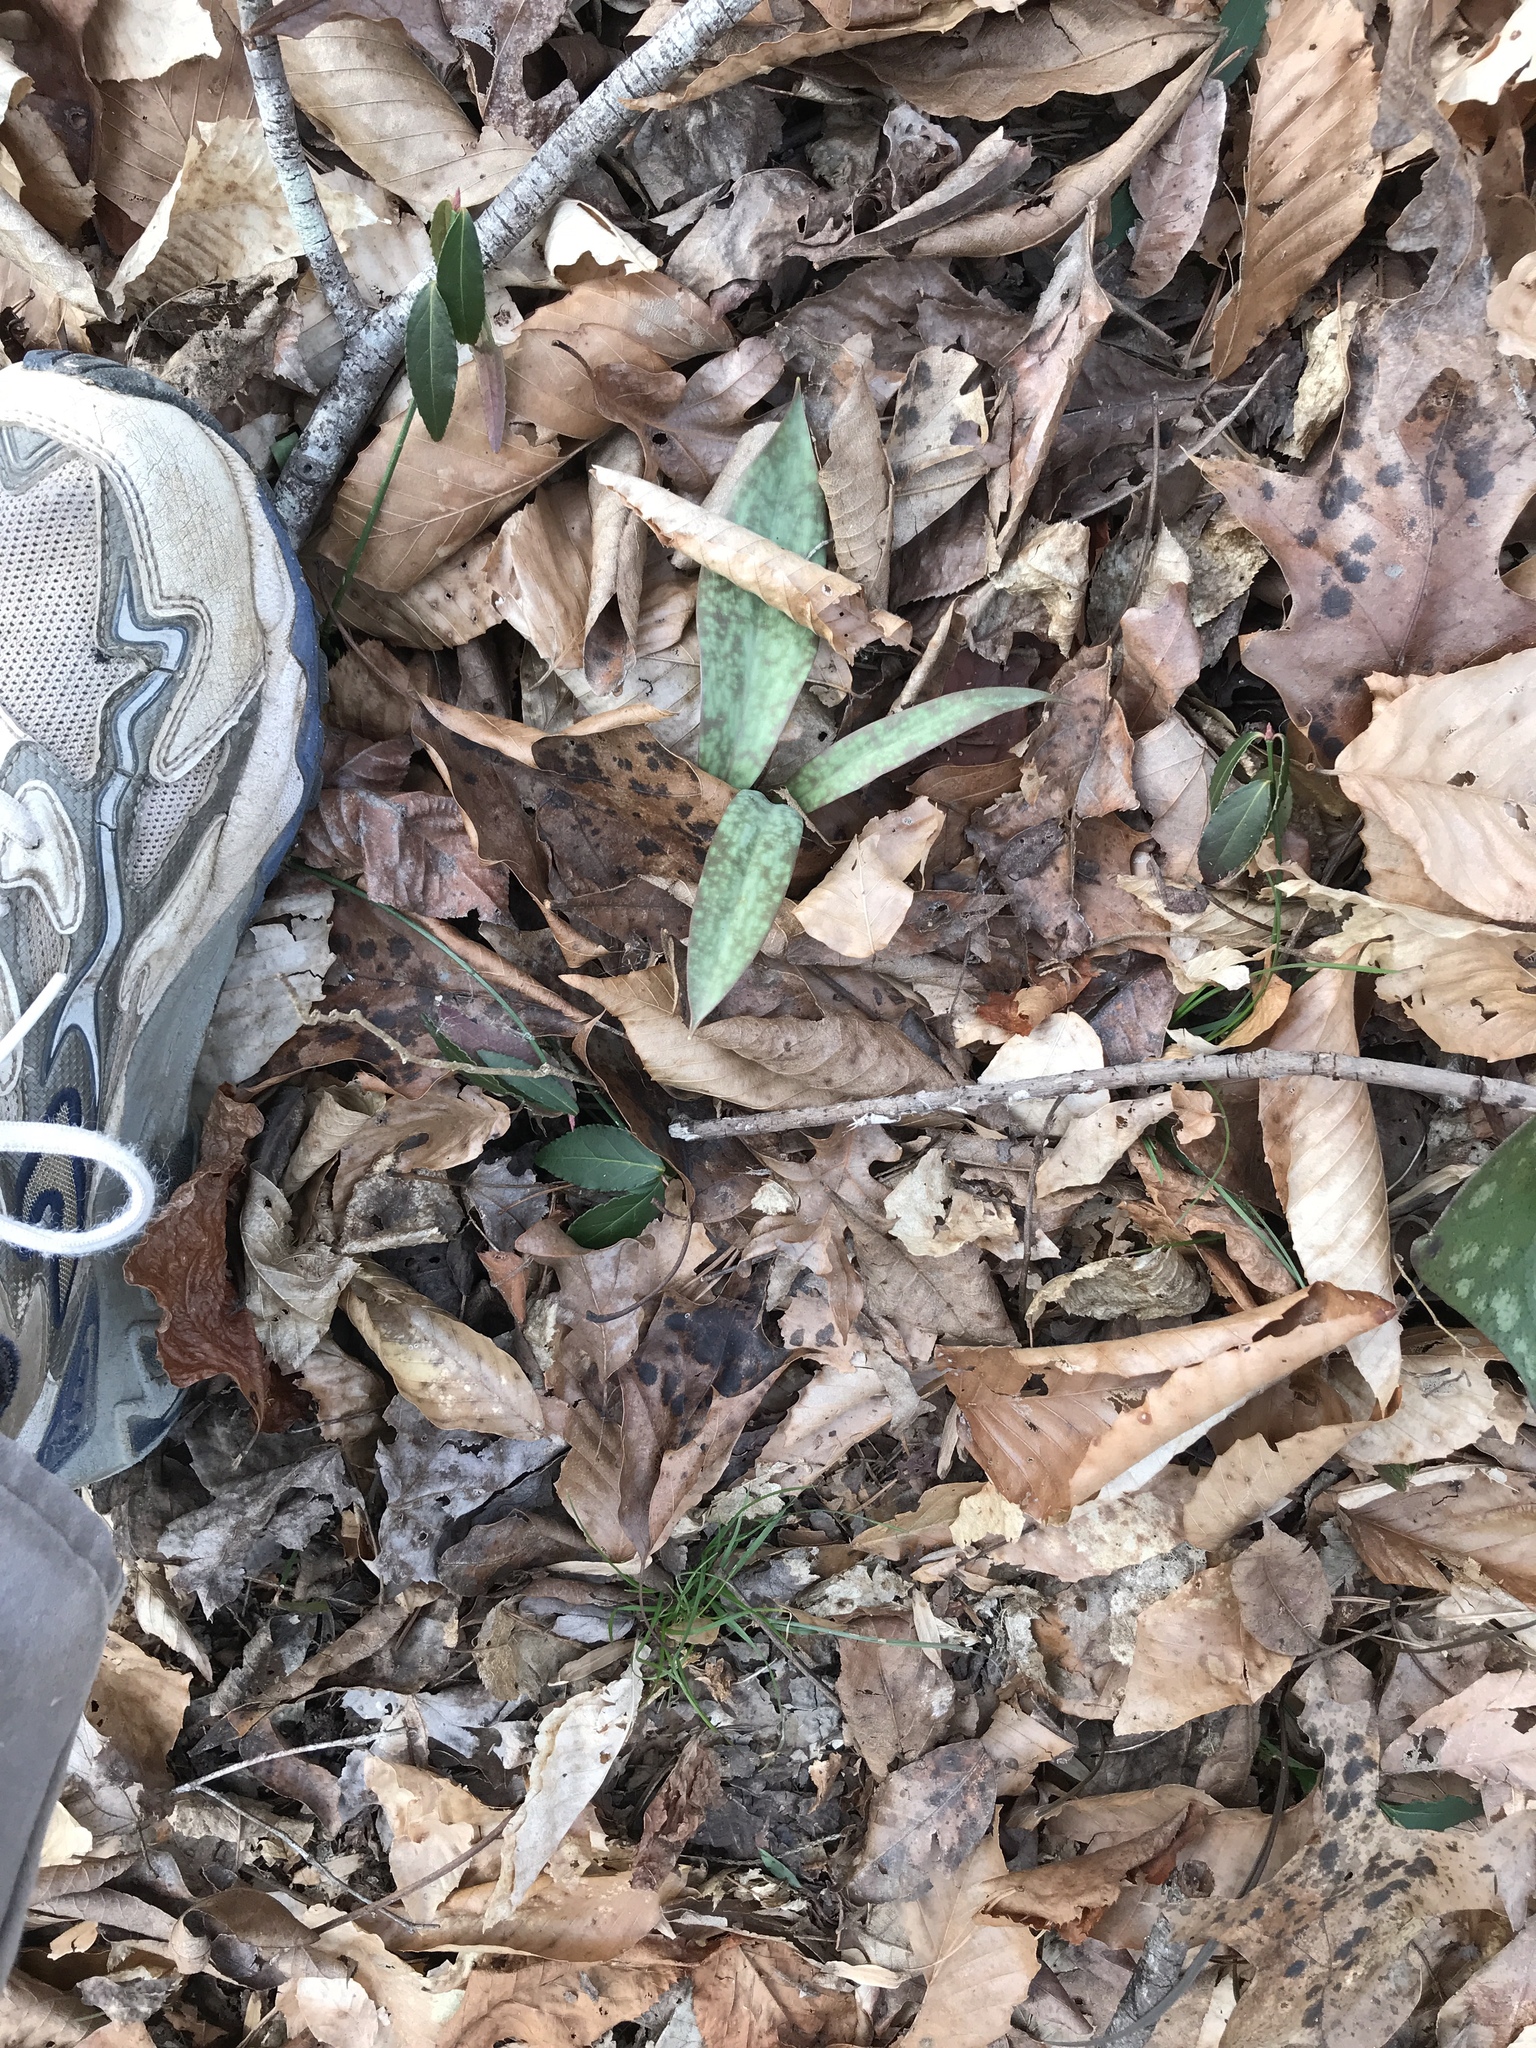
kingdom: Plantae
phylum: Tracheophyta
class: Liliopsida
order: Liliales
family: Liliaceae
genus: Erythronium
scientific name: Erythronium umbilicatum
